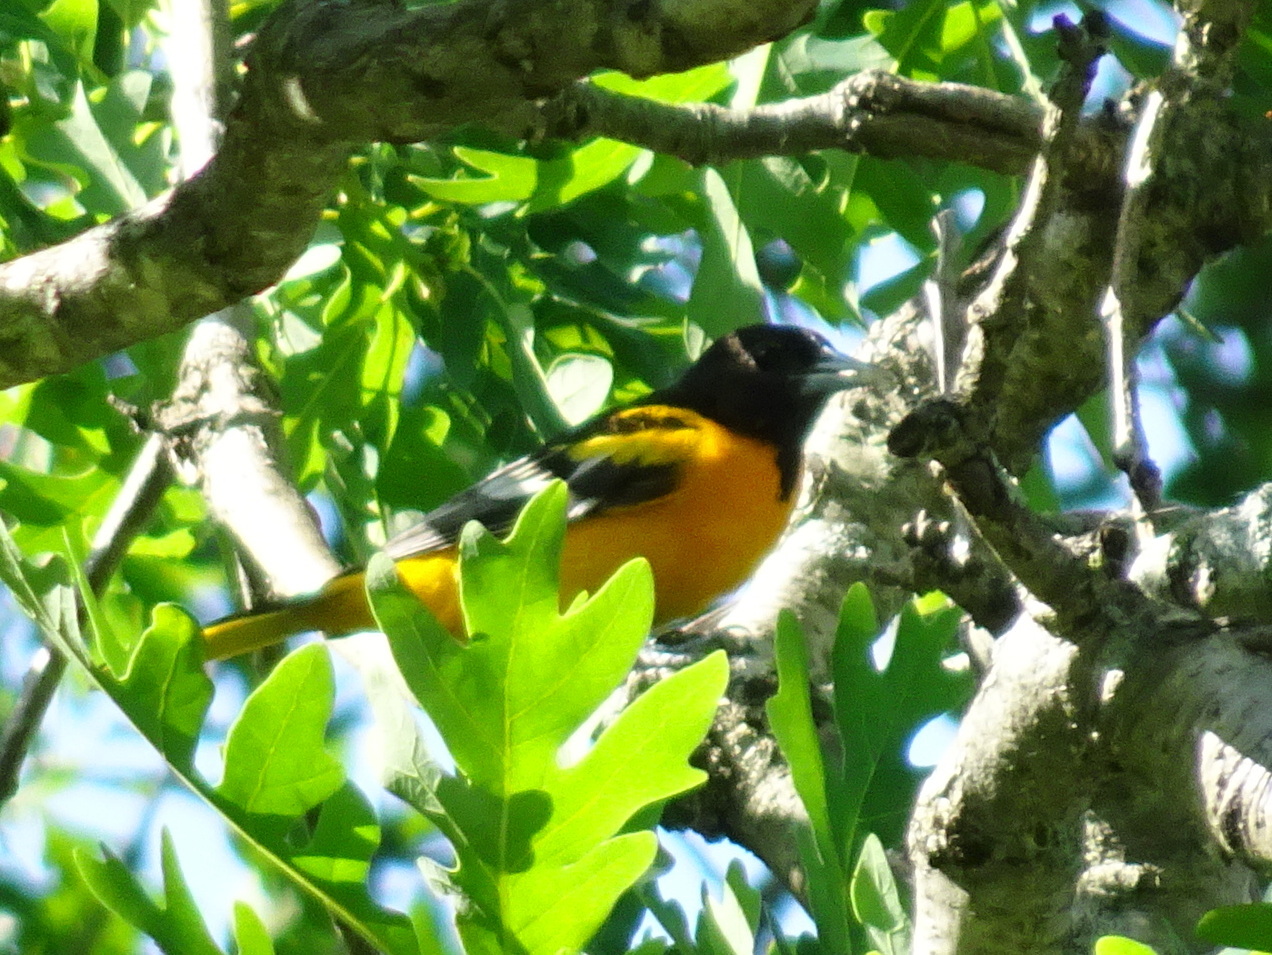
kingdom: Animalia
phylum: Chordata
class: Aves
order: Passeriformes
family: Icteridae
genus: Icterus
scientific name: Icterus galbula
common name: Baltimore oriole
